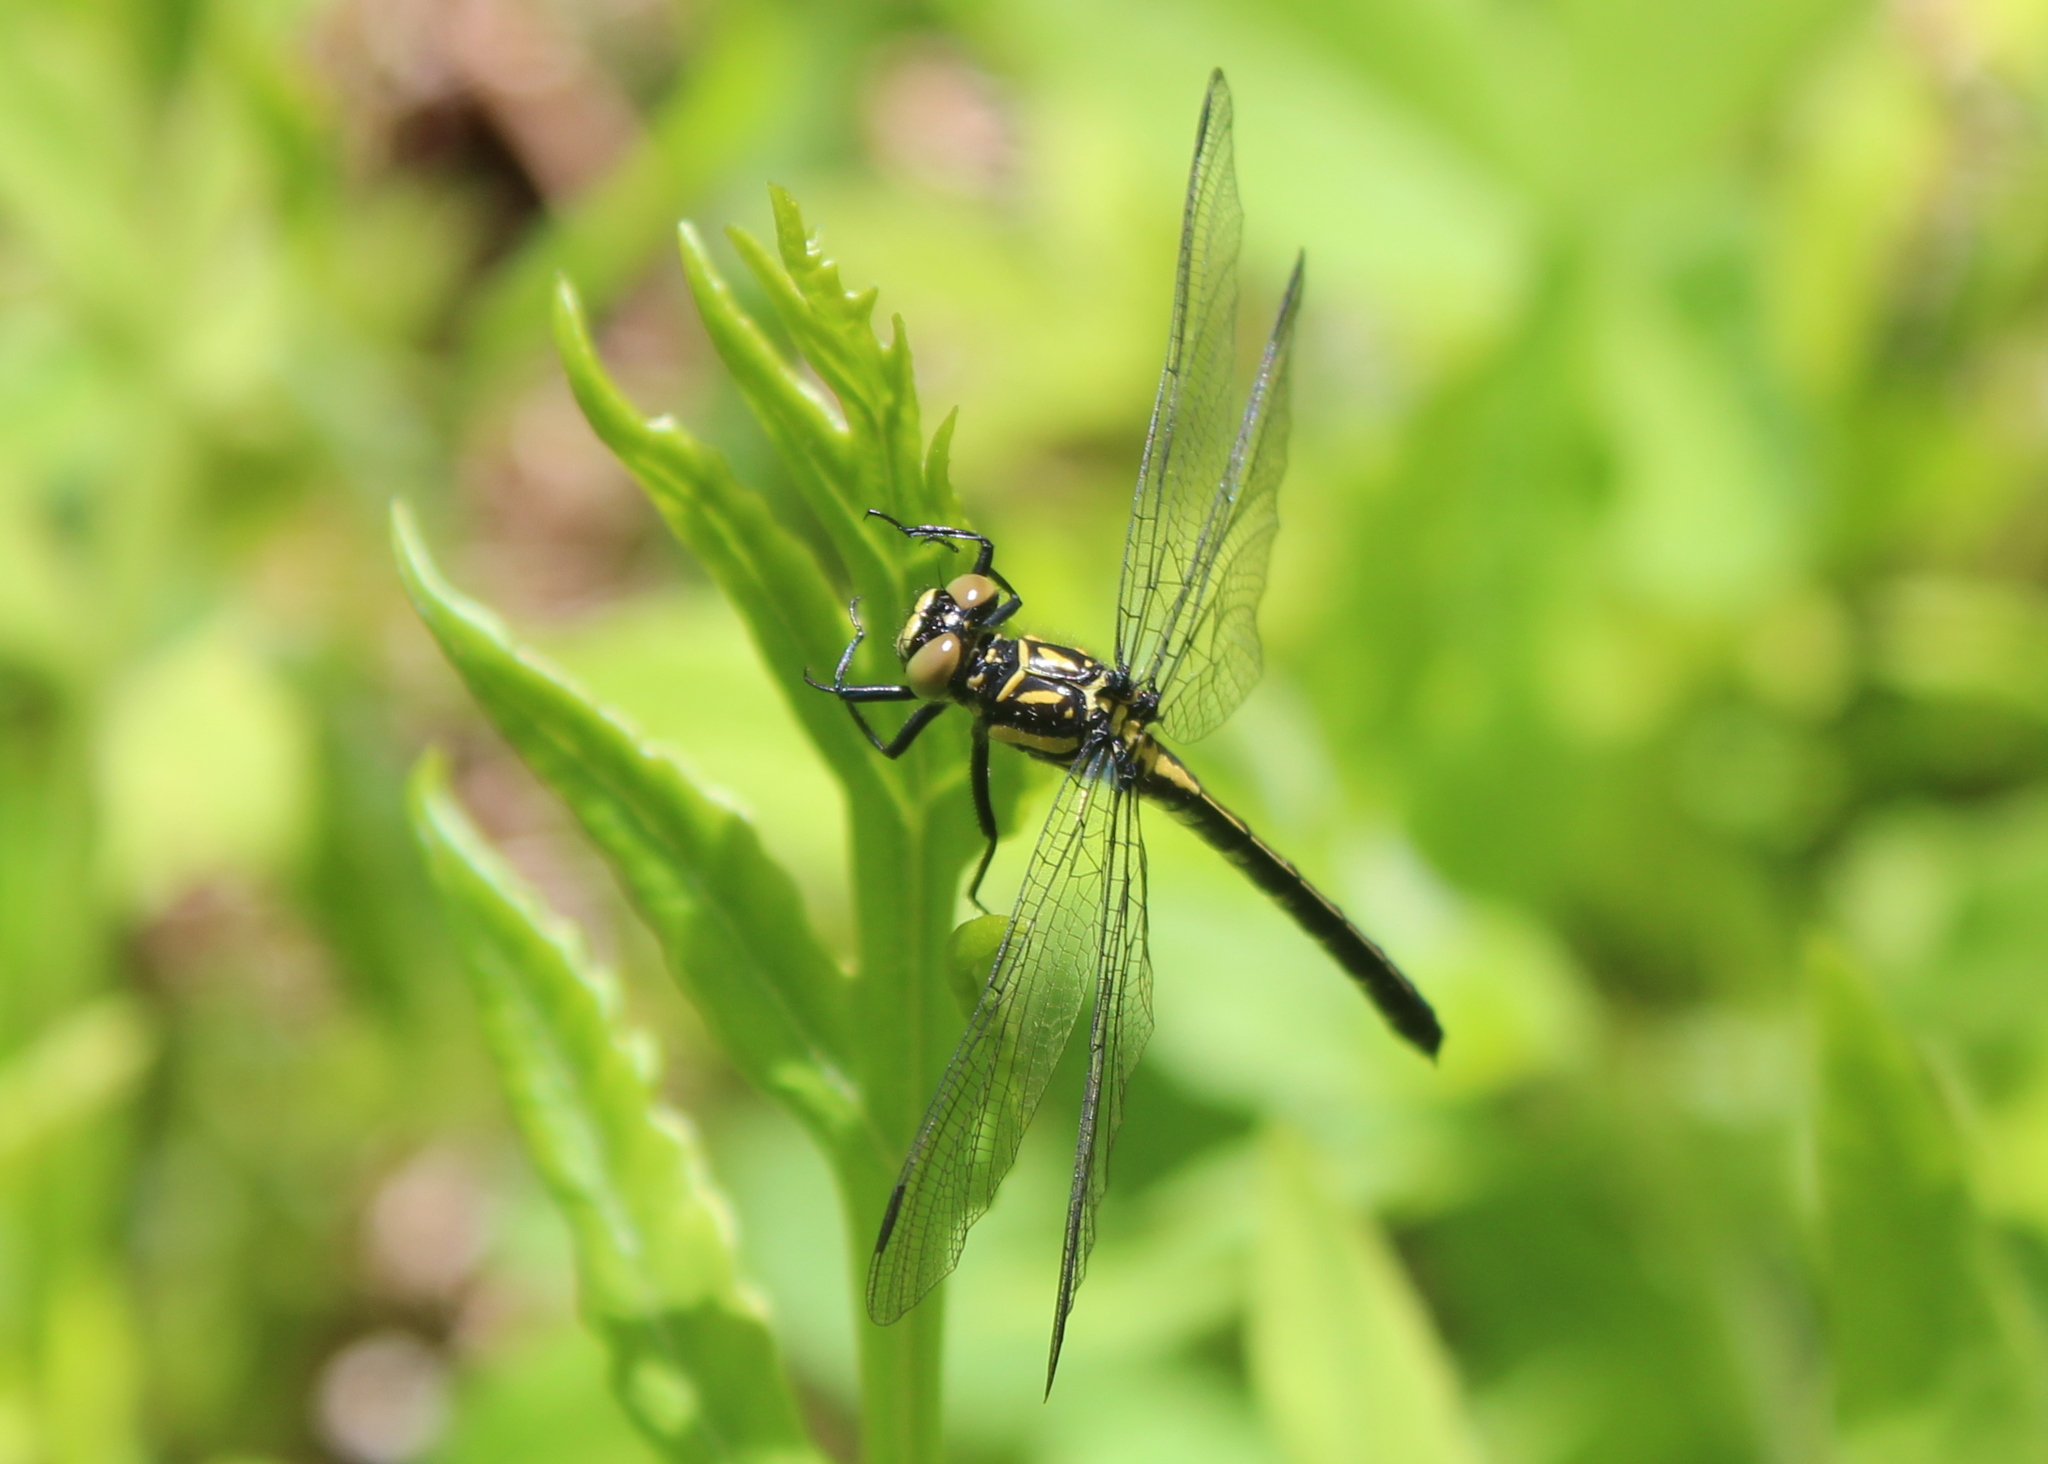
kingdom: Animalia
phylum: Arthropoda
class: Insecta
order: Odonata
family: Gomphidae
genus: Lanthus
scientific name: Lanthus parvulus
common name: Northern pygmy clubtail
